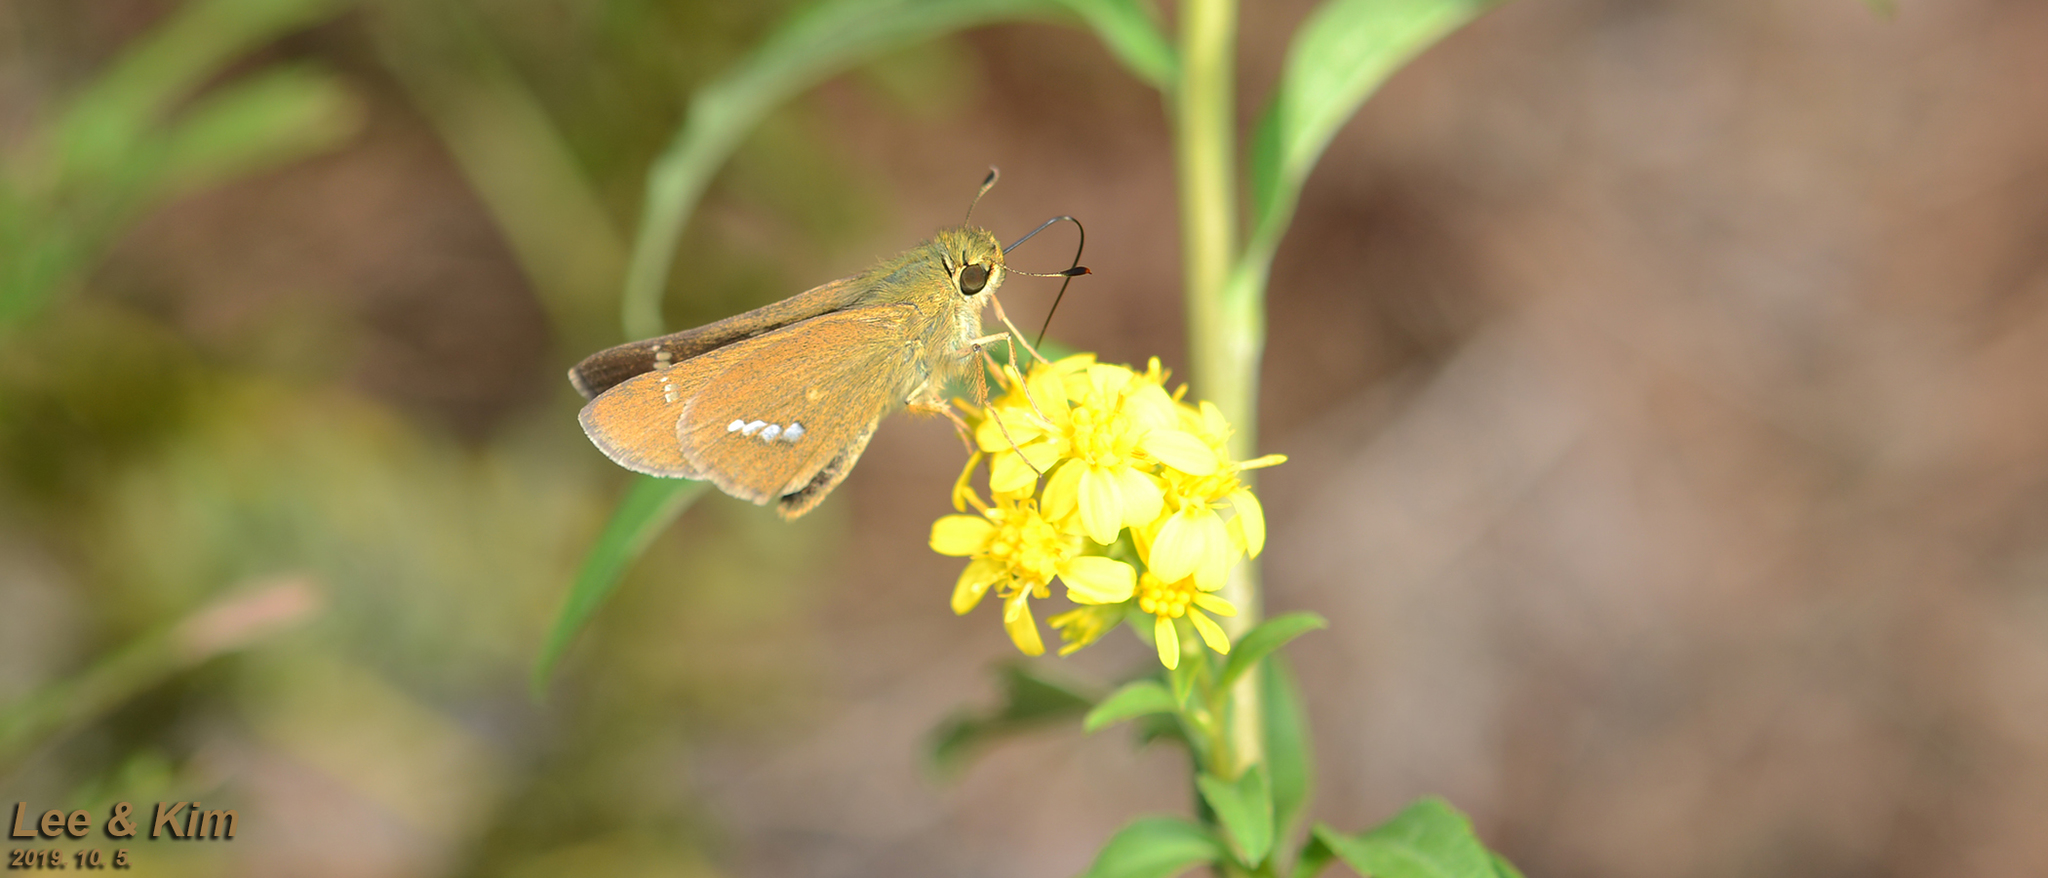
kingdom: Animalia
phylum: Arthropoda
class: Insecta
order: Lepidoptera
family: Hesperiidae
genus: Parnara
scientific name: Parnara guttatus
